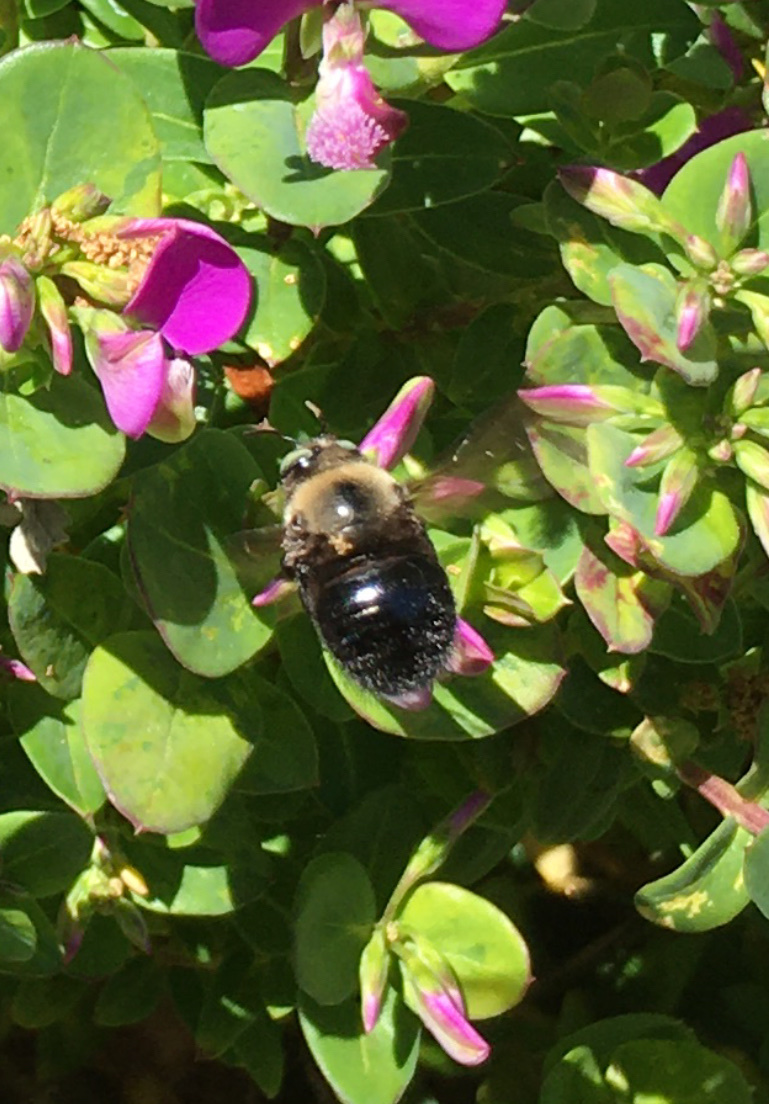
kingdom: Animalia
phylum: Arthropoda
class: Insecta
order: Hymenoptera
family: Apidae
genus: Xylocopa
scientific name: Xylocopa tabaniformis
